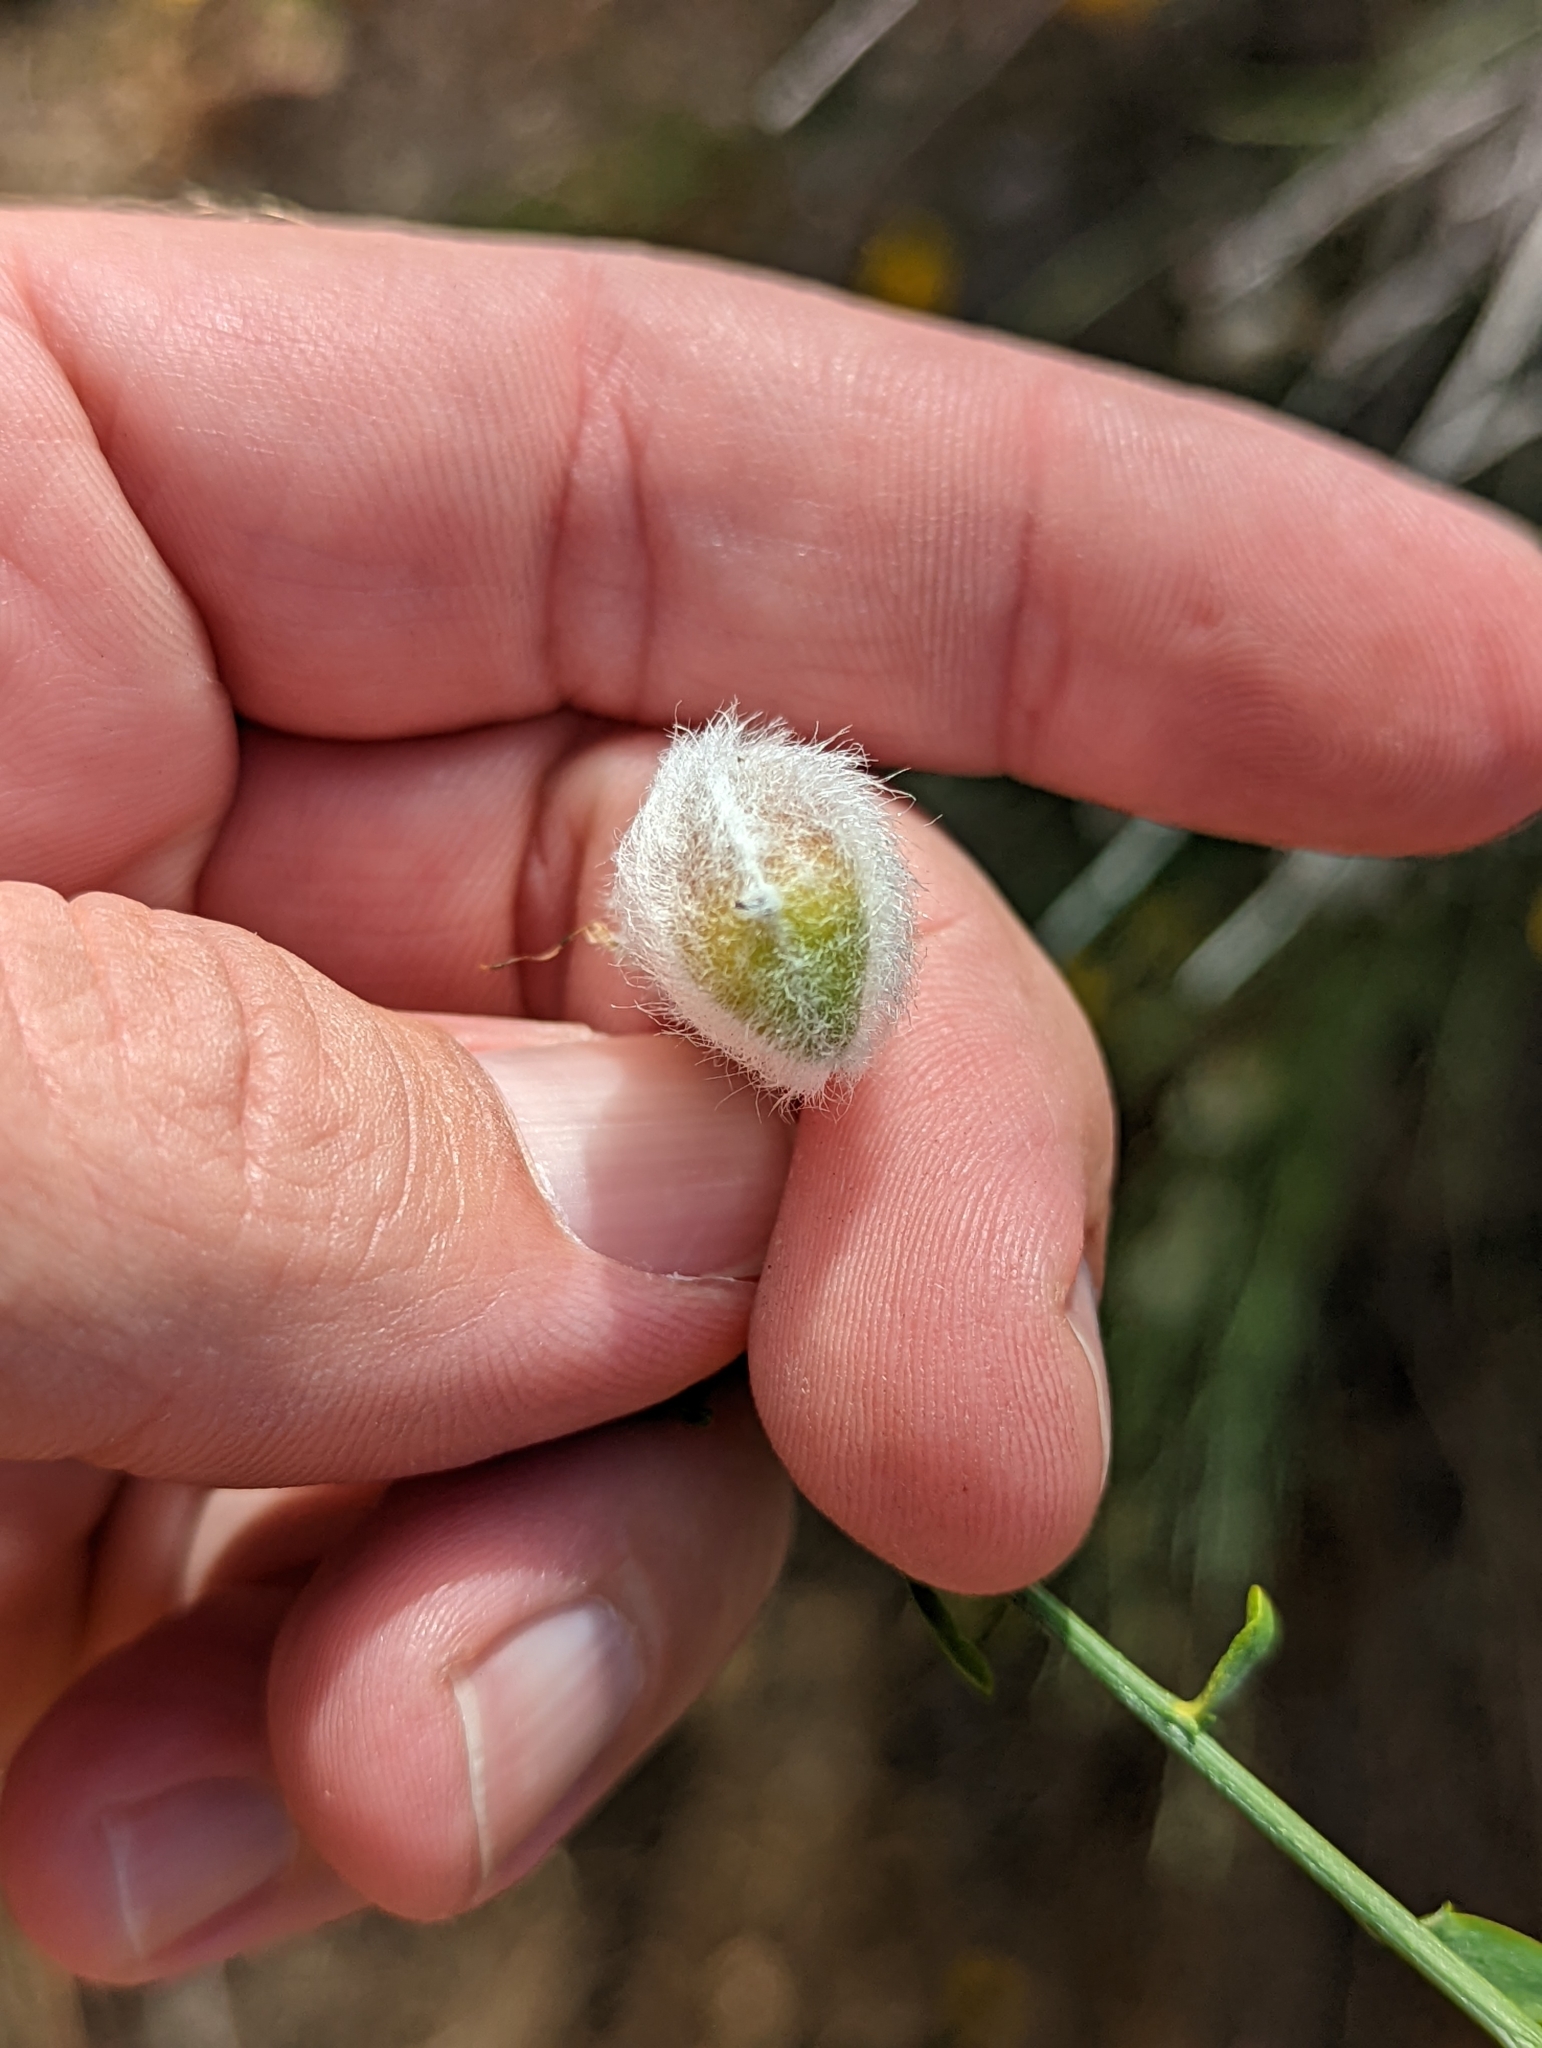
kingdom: Plantae
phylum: Tracheophyta
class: Magnoliopsida
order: Fabales
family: Fabaceae
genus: Cytisus
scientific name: Cytisus striatus
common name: Hairy-fruited broom
